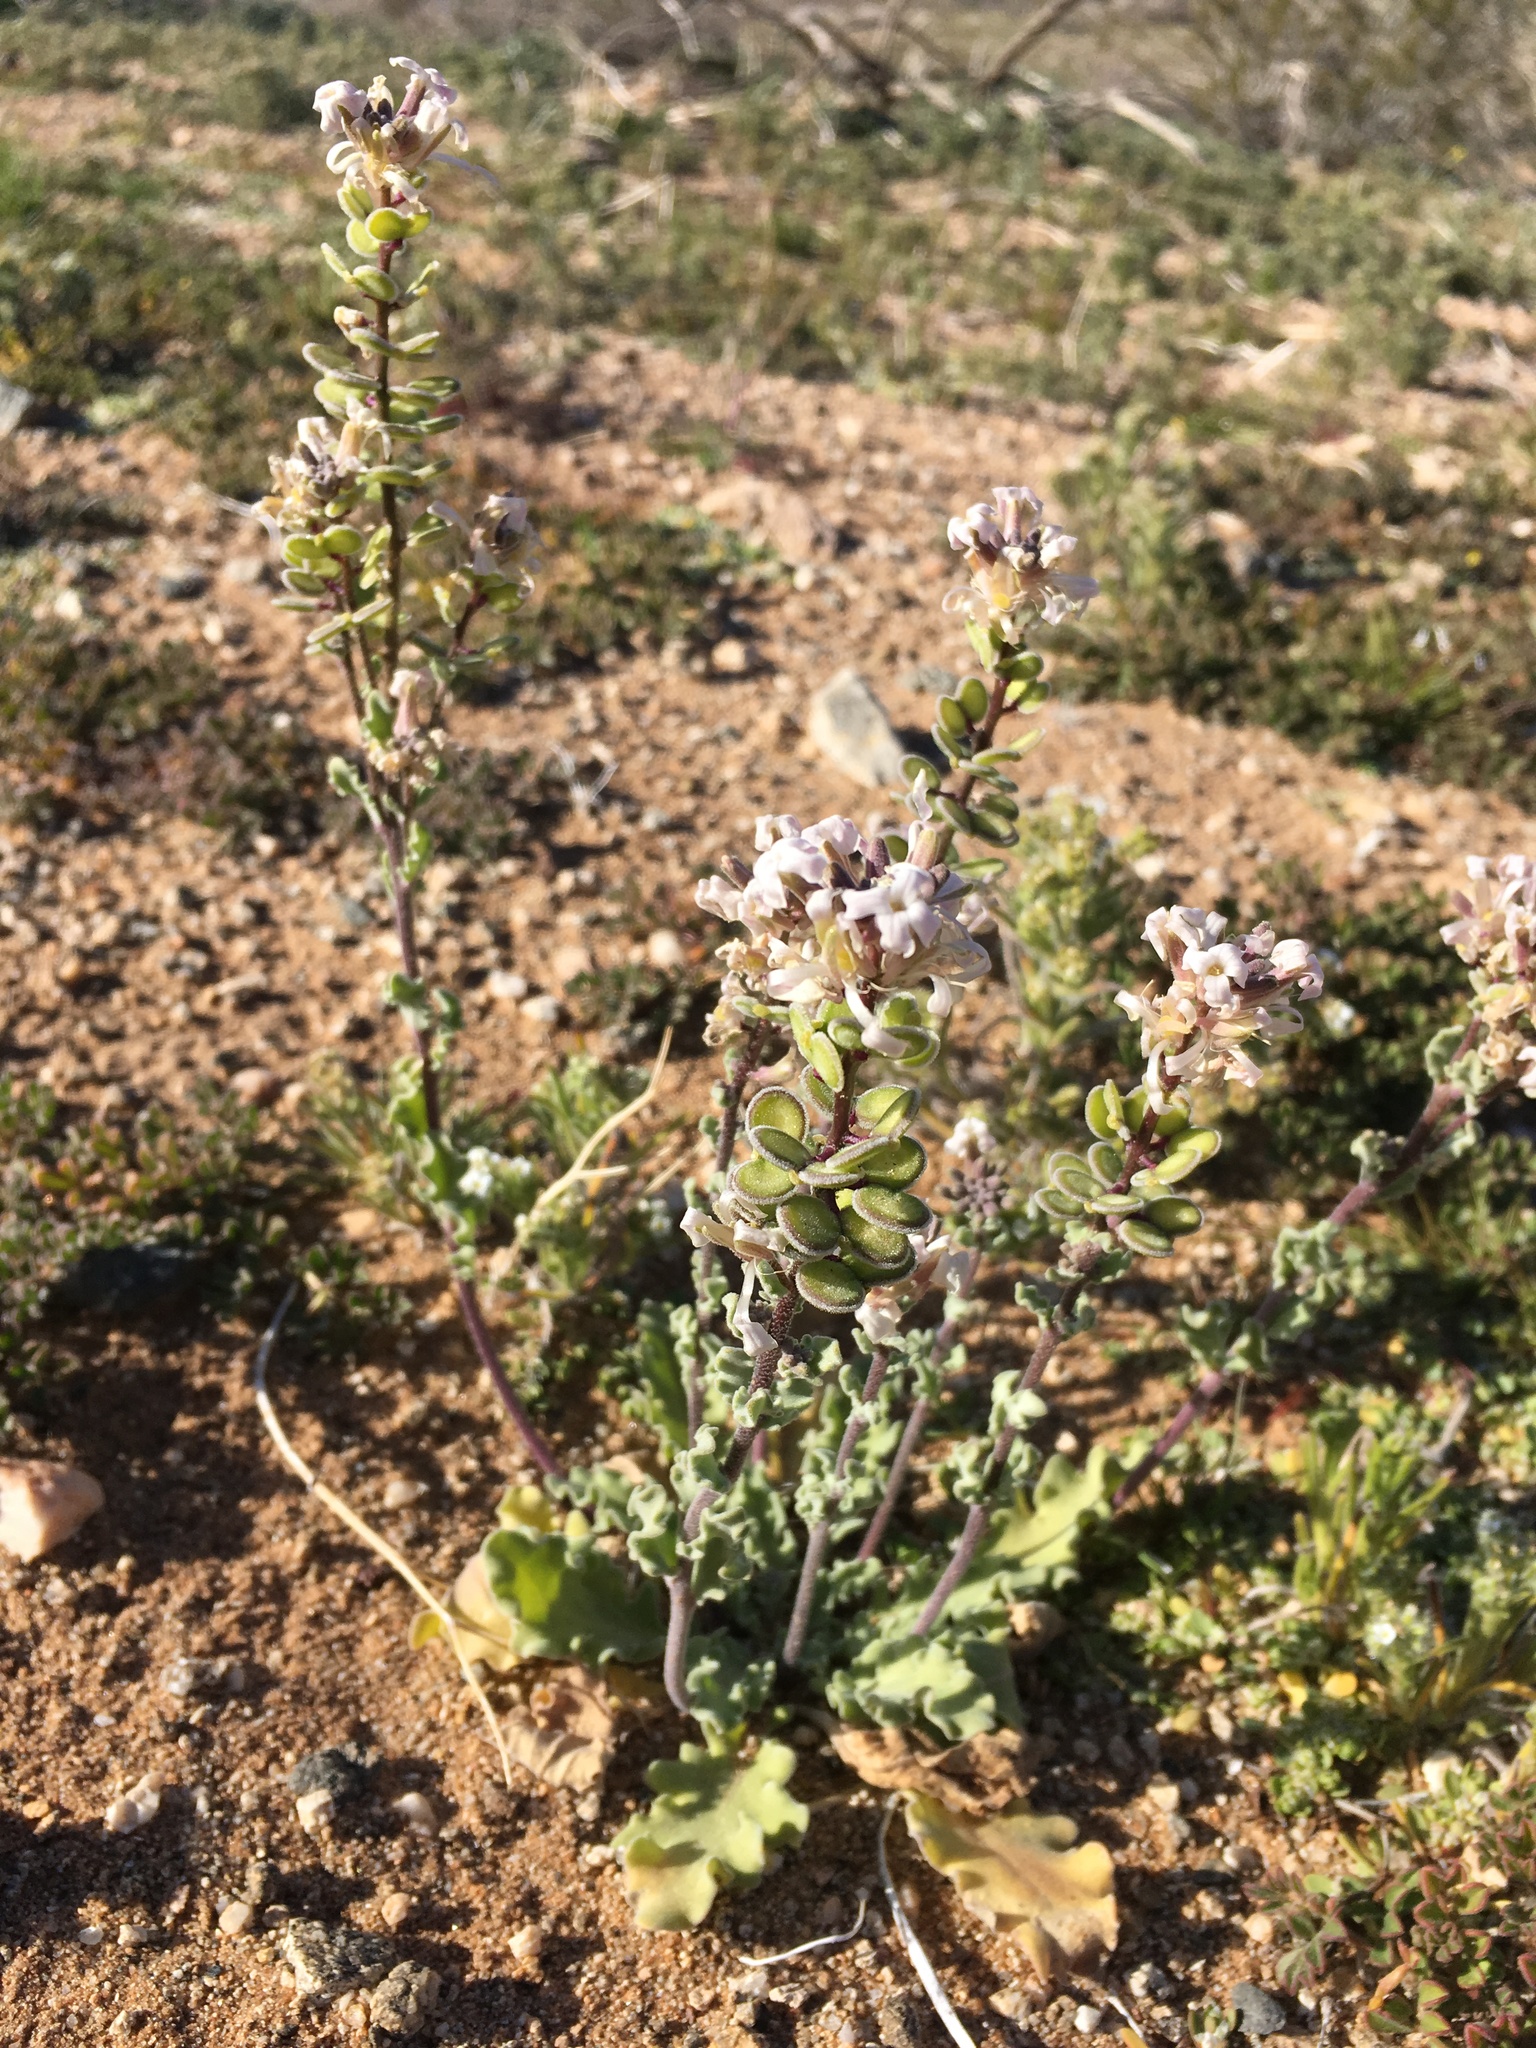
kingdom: Plantae
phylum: Tracheophyta
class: Magnoliopsida
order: Brassicales
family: Brassicaceae
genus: Dithyrea
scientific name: Dithyrea californica
